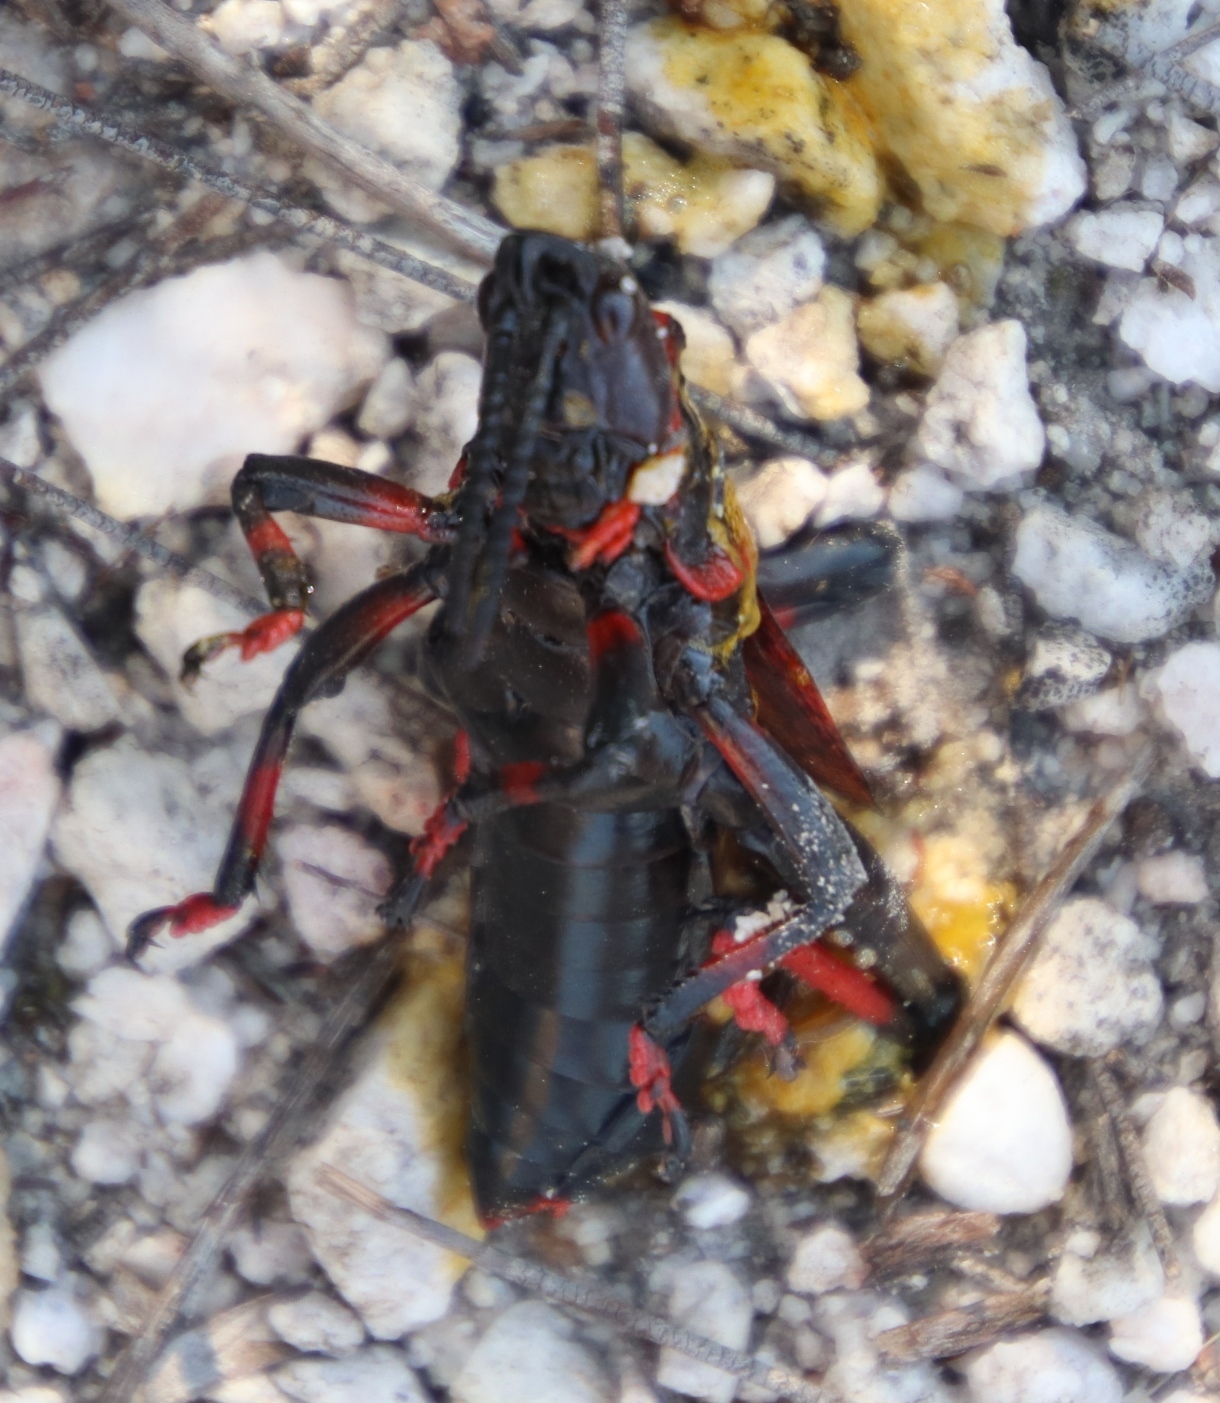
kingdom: Animalia
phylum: Arthropoda
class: Insecta
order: Orthoptera
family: Pyrgomorphidae
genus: Dictyophorus
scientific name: Dictyophorus spumans
